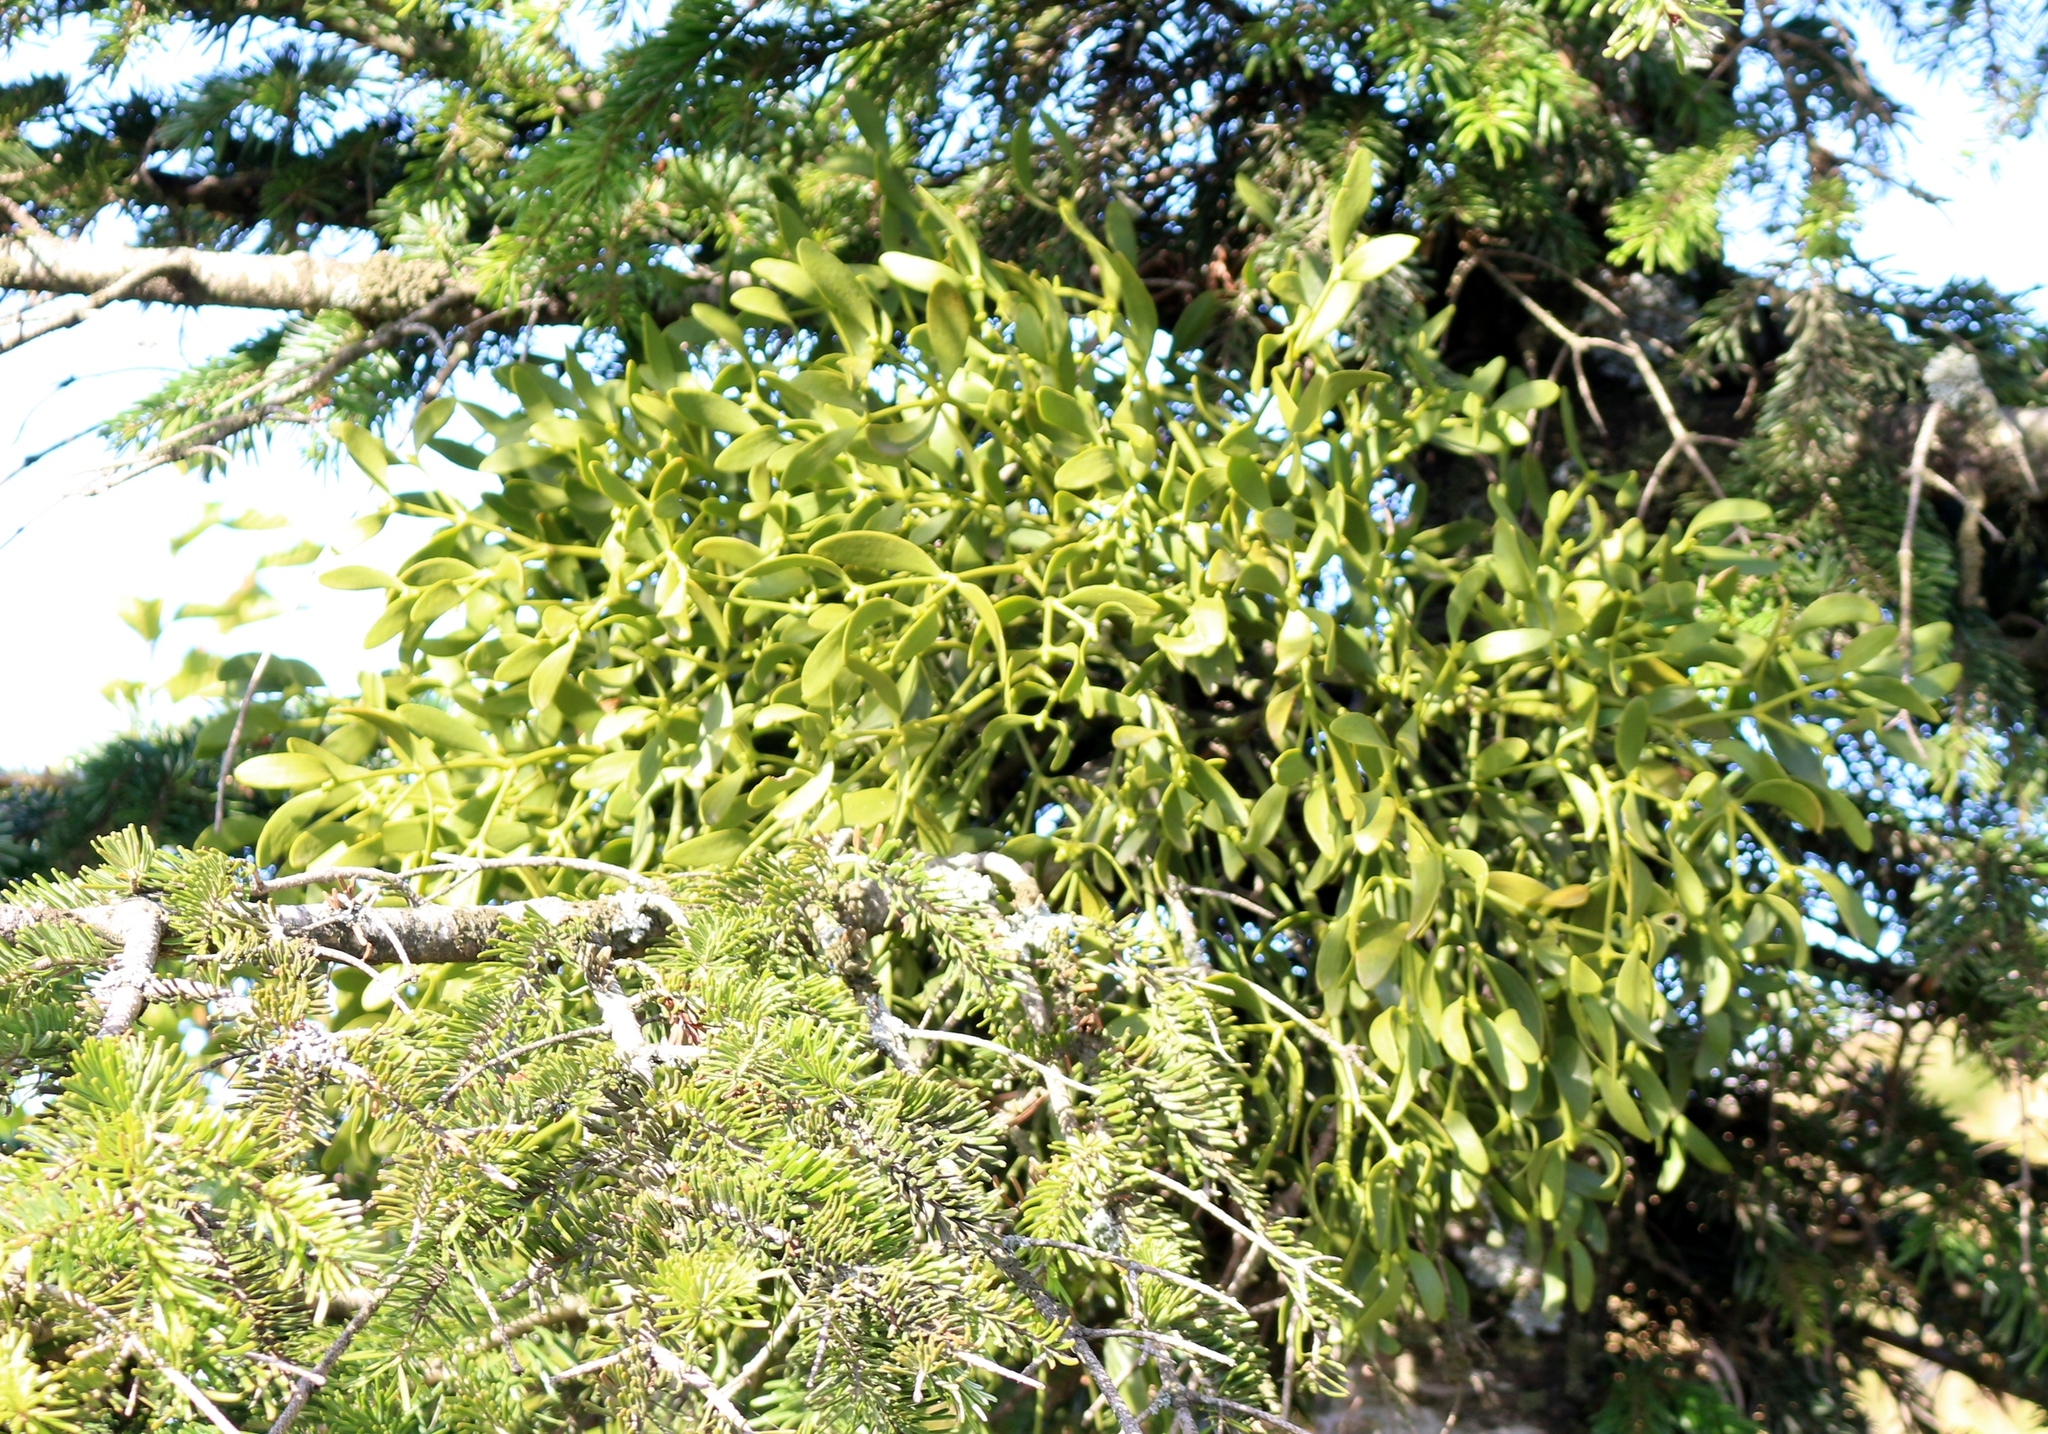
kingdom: Plantae
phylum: Tracheophyta
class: Magnoliopsida
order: Santalales
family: Viscaceae
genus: Viscum
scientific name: Viscum album
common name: Mistletoe
